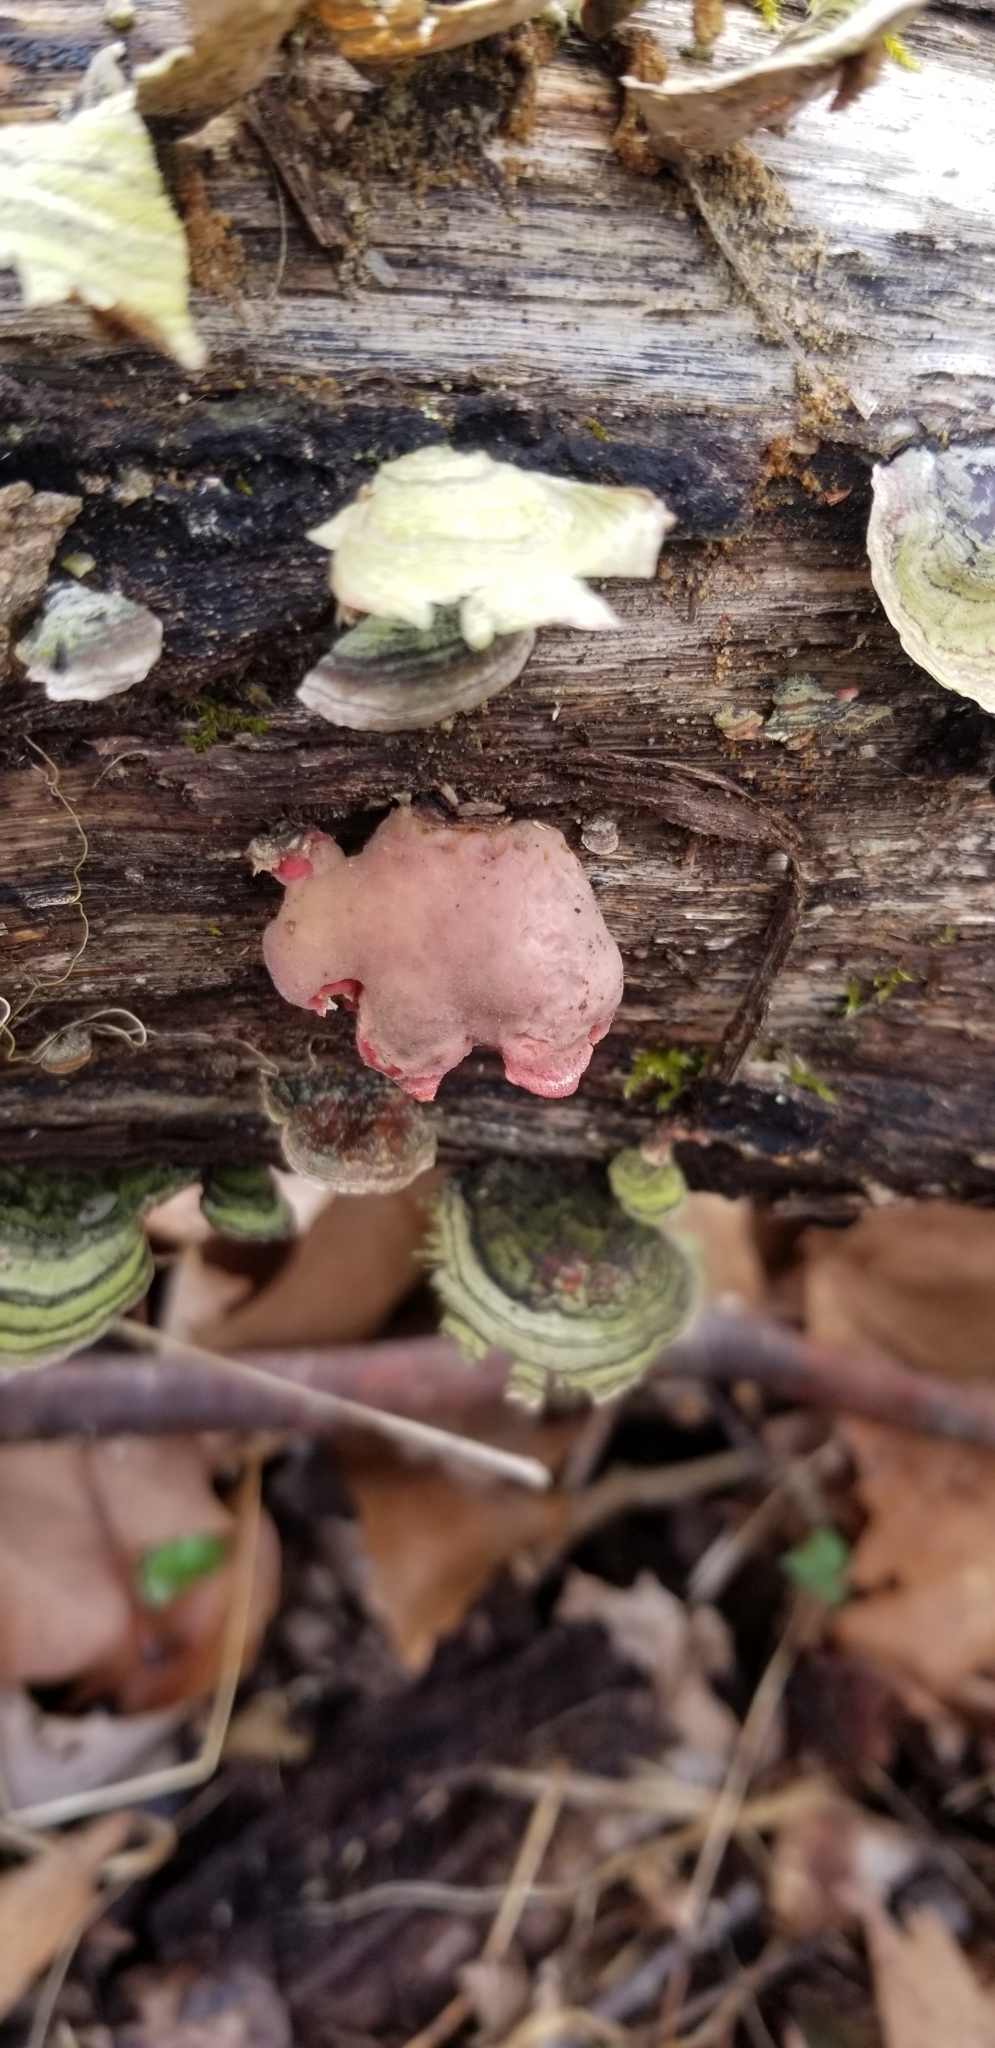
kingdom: Fungi
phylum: Basidiomycota
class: Agaricomycetes
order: Polyporales
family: Irpicaceae
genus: Byssomerulius
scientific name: Byssomerulius incarnatus
